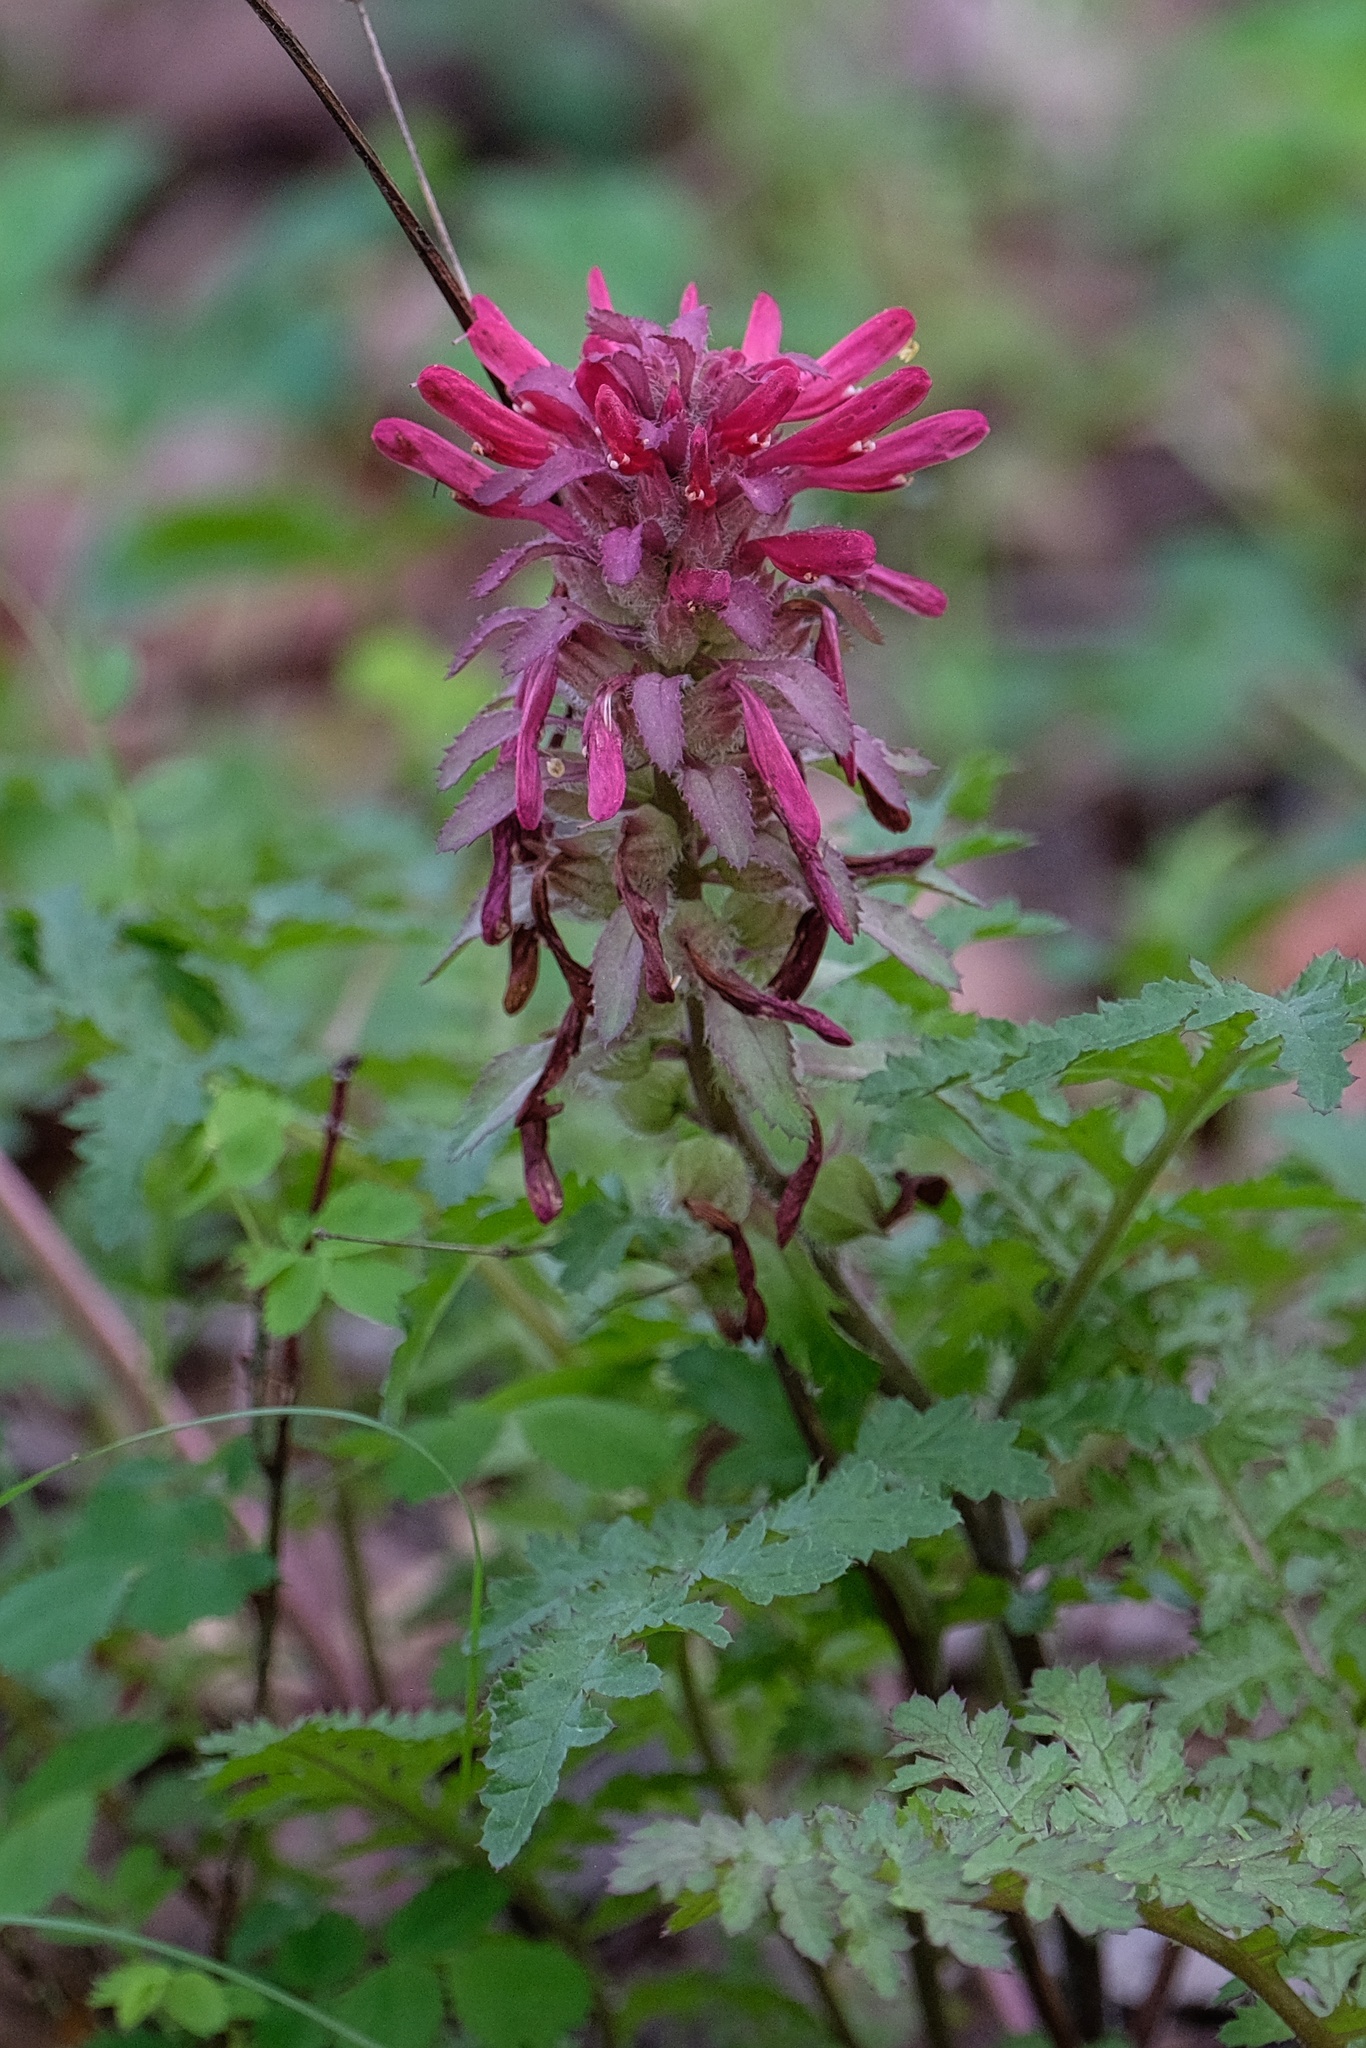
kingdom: Plantae
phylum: Tracheophyta
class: Magnoliopsida
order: Lamiales
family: Orobanchaceae
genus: Pedicularis
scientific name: Pedicularis densiflora
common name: Indian warrior
